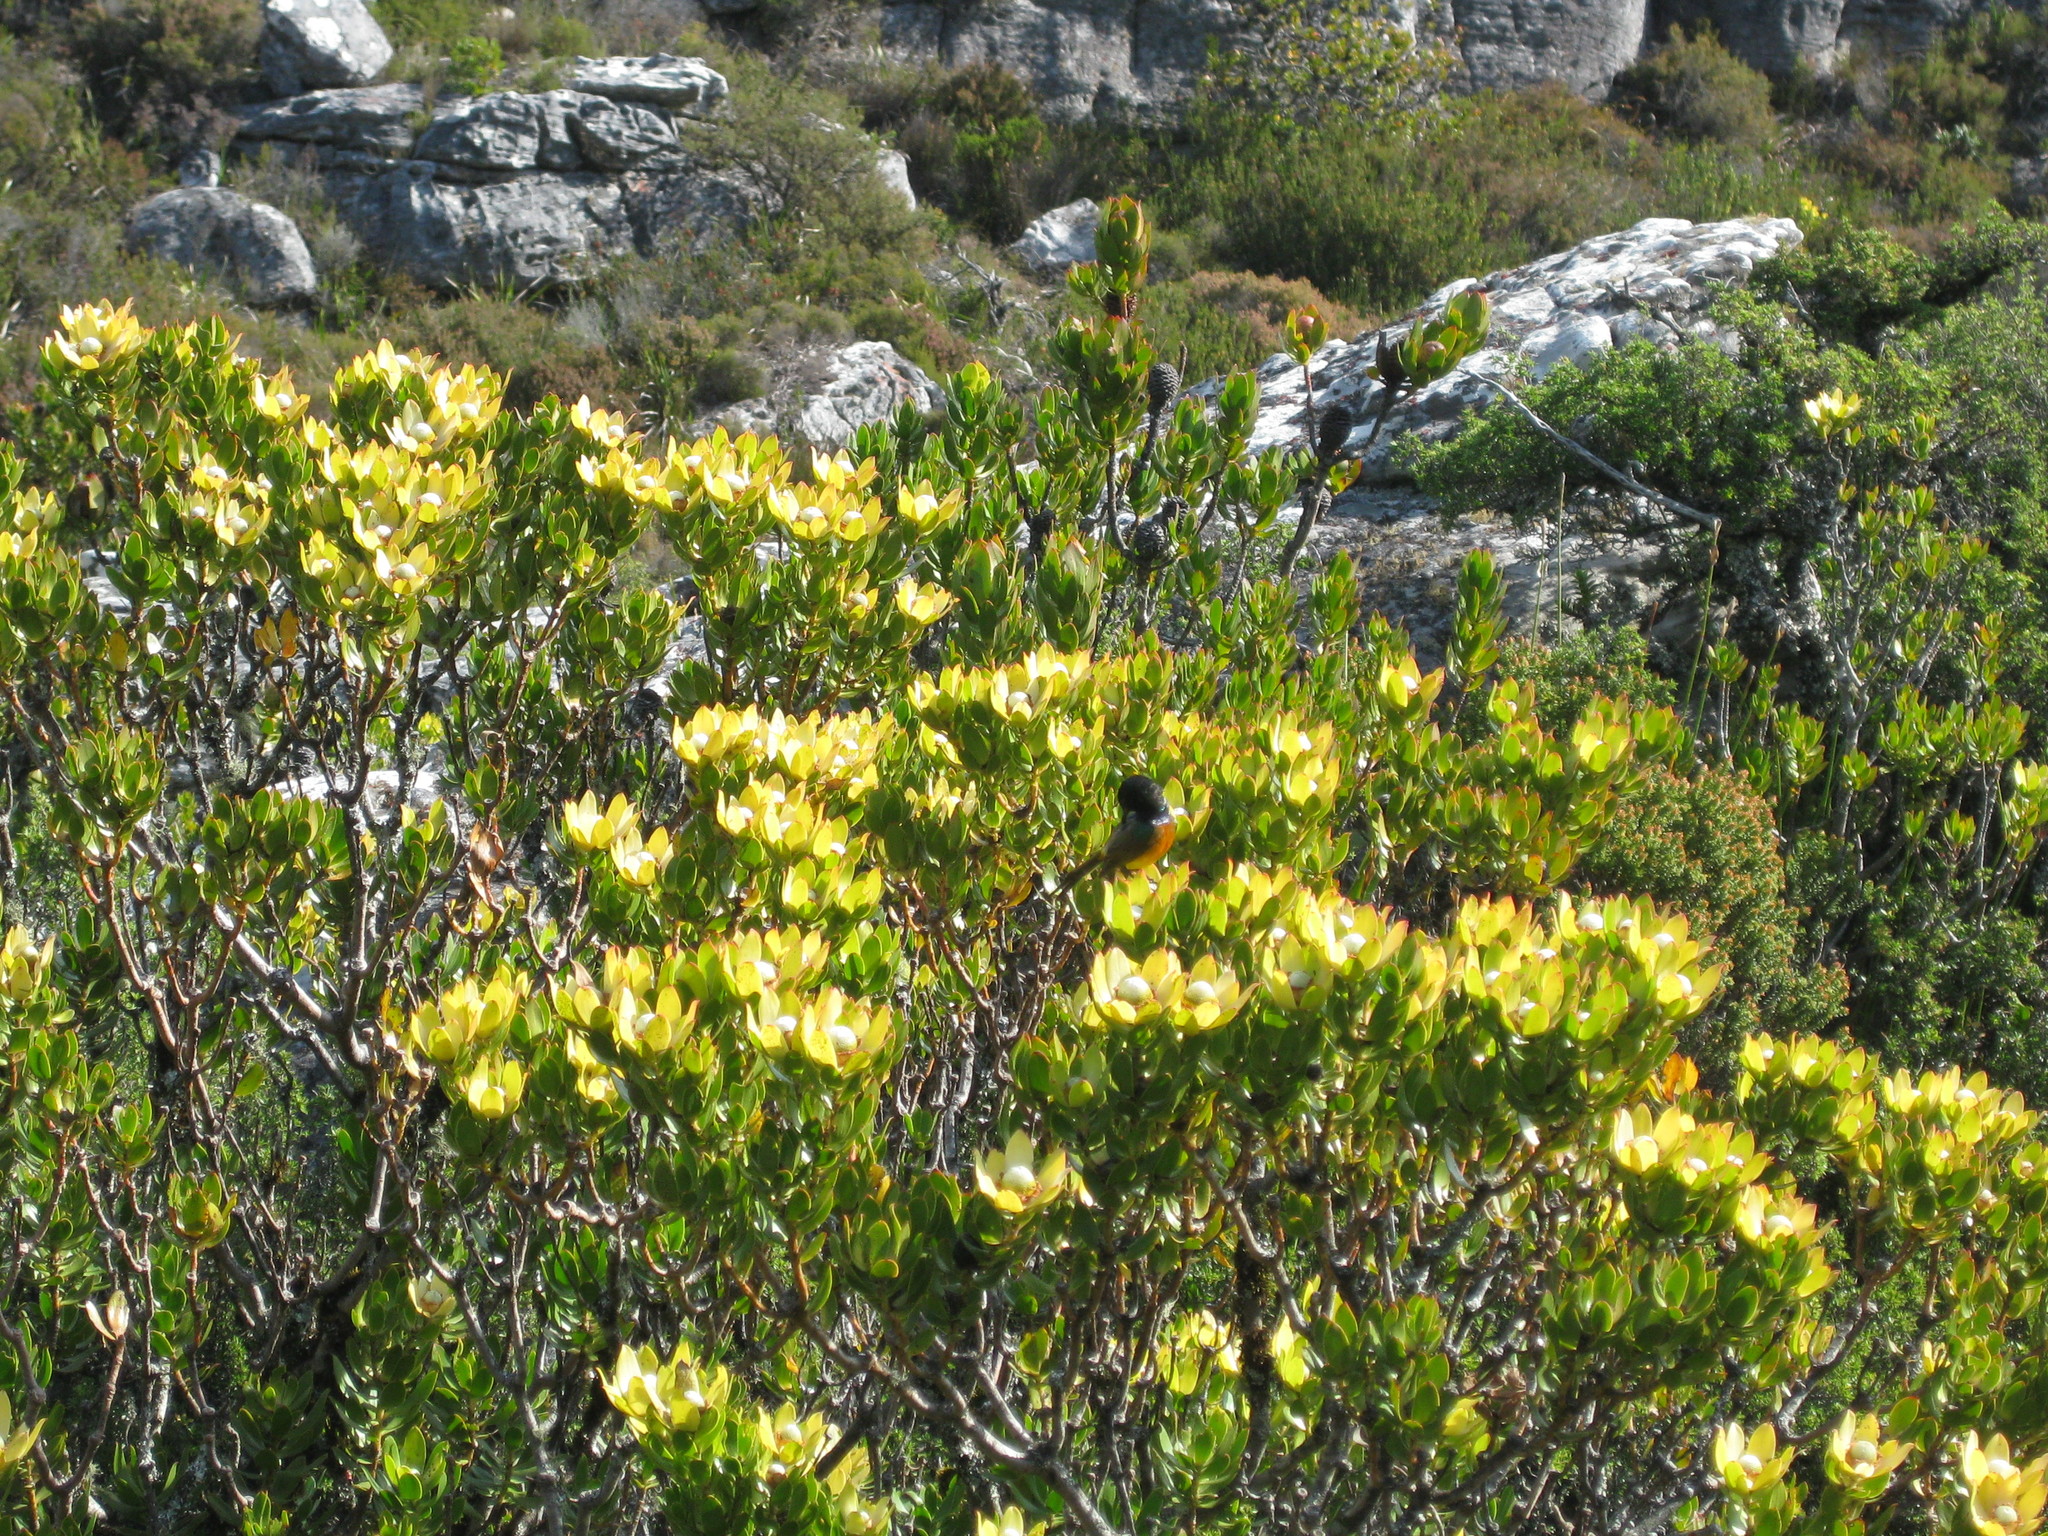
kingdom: Plantae
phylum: Tracheophyta
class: Magnoliopsida
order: Proteales
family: Proteaceae
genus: Leucadendron
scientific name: Leucadendron strobilinum
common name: Mountain rose
